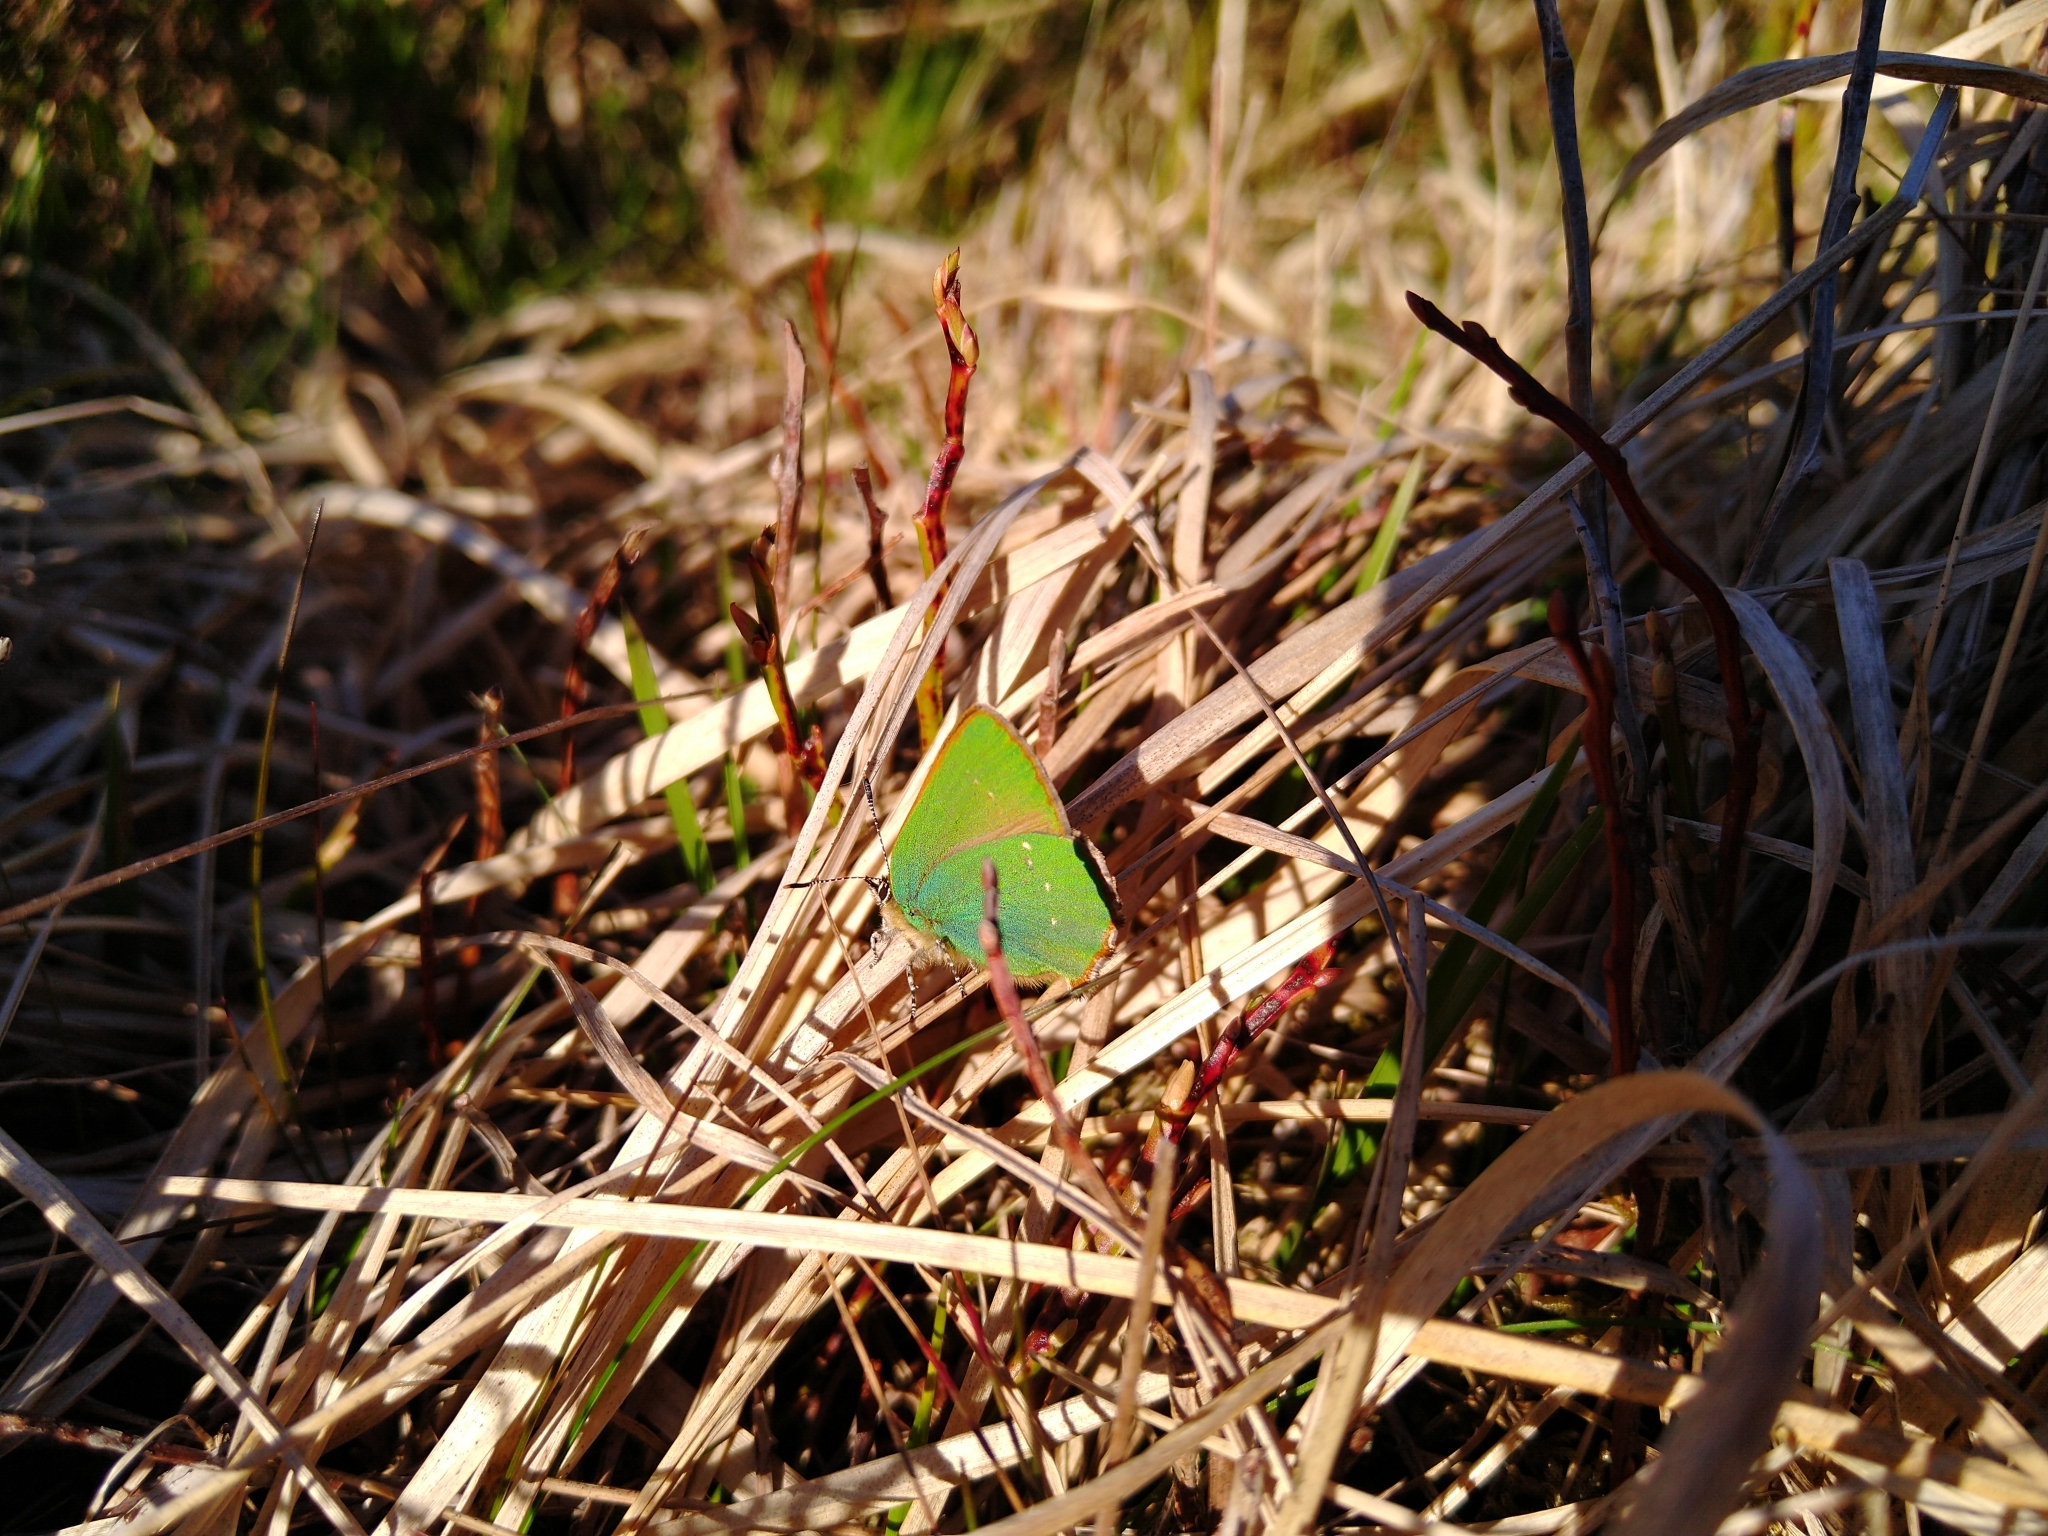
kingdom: Animalia
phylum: Arthropoda
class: Insecta
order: Lepidoptera
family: Lycaenidae
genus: Callophrys
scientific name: Callophrys rubi
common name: Green hairstreak
